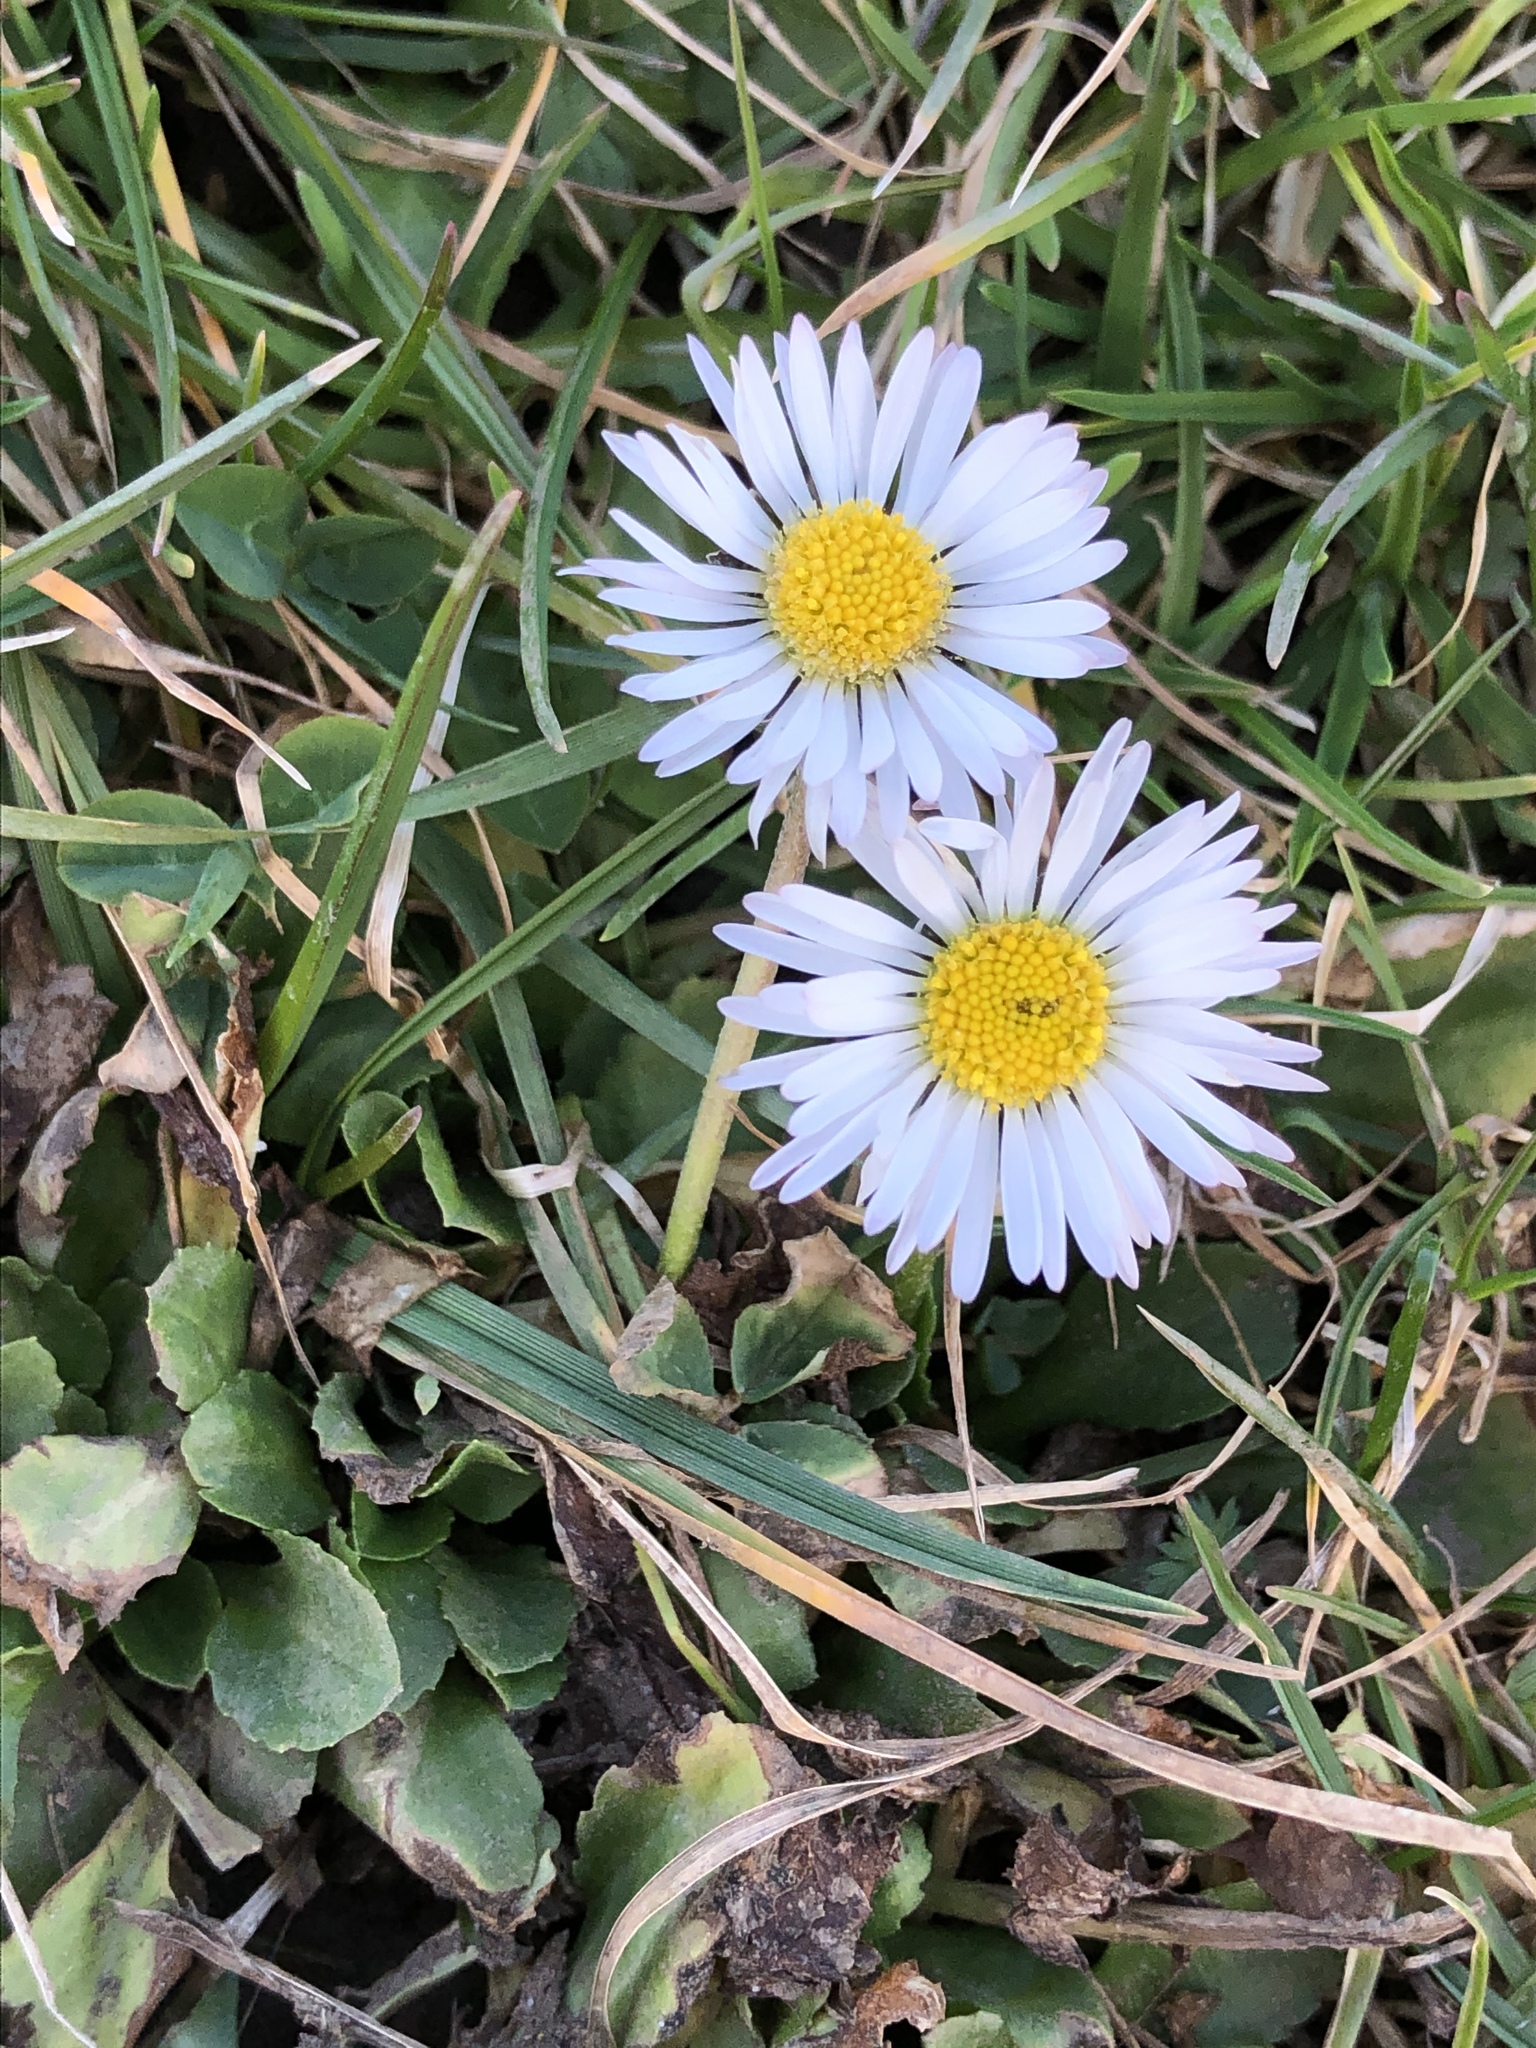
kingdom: Plantae
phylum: Tracheophyta
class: Magnoliopsida
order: Asterales
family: Asteraceae
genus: Bellis
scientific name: Bellis perennis
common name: Lawndaisy
